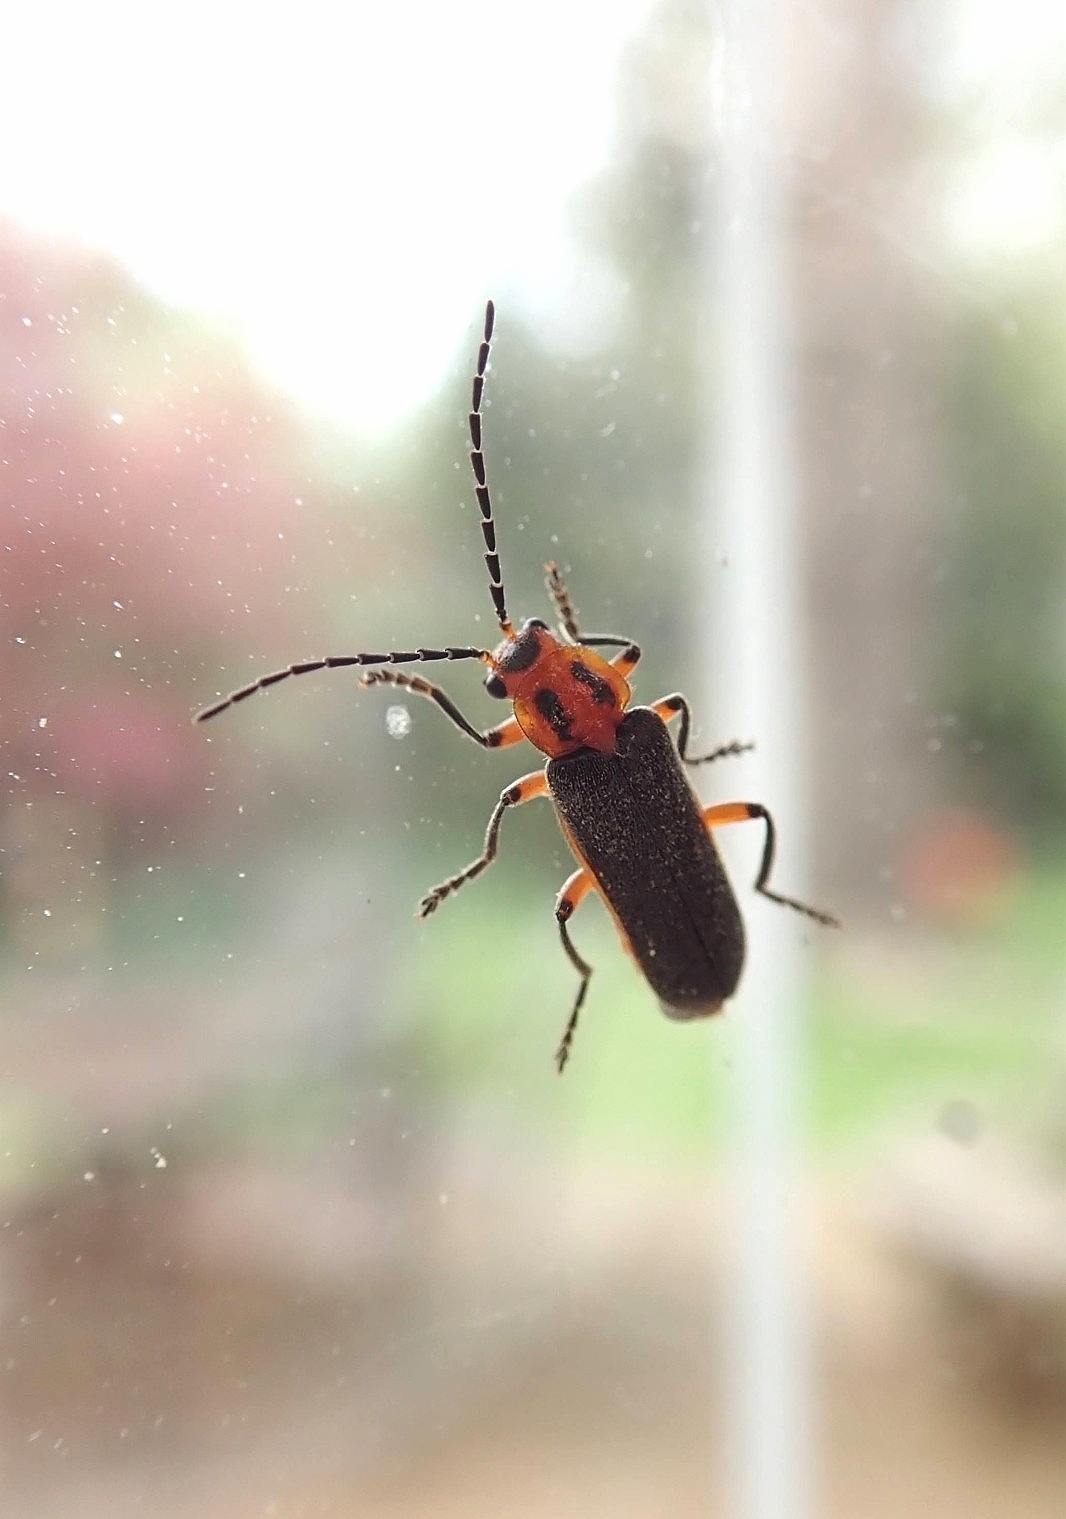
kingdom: Animalia
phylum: Arthropoda
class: Insecta
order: Coleoptera
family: Cantharidae
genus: Atalantycha
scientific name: Atalantycha bilineata
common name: Two-lined leatherwing
